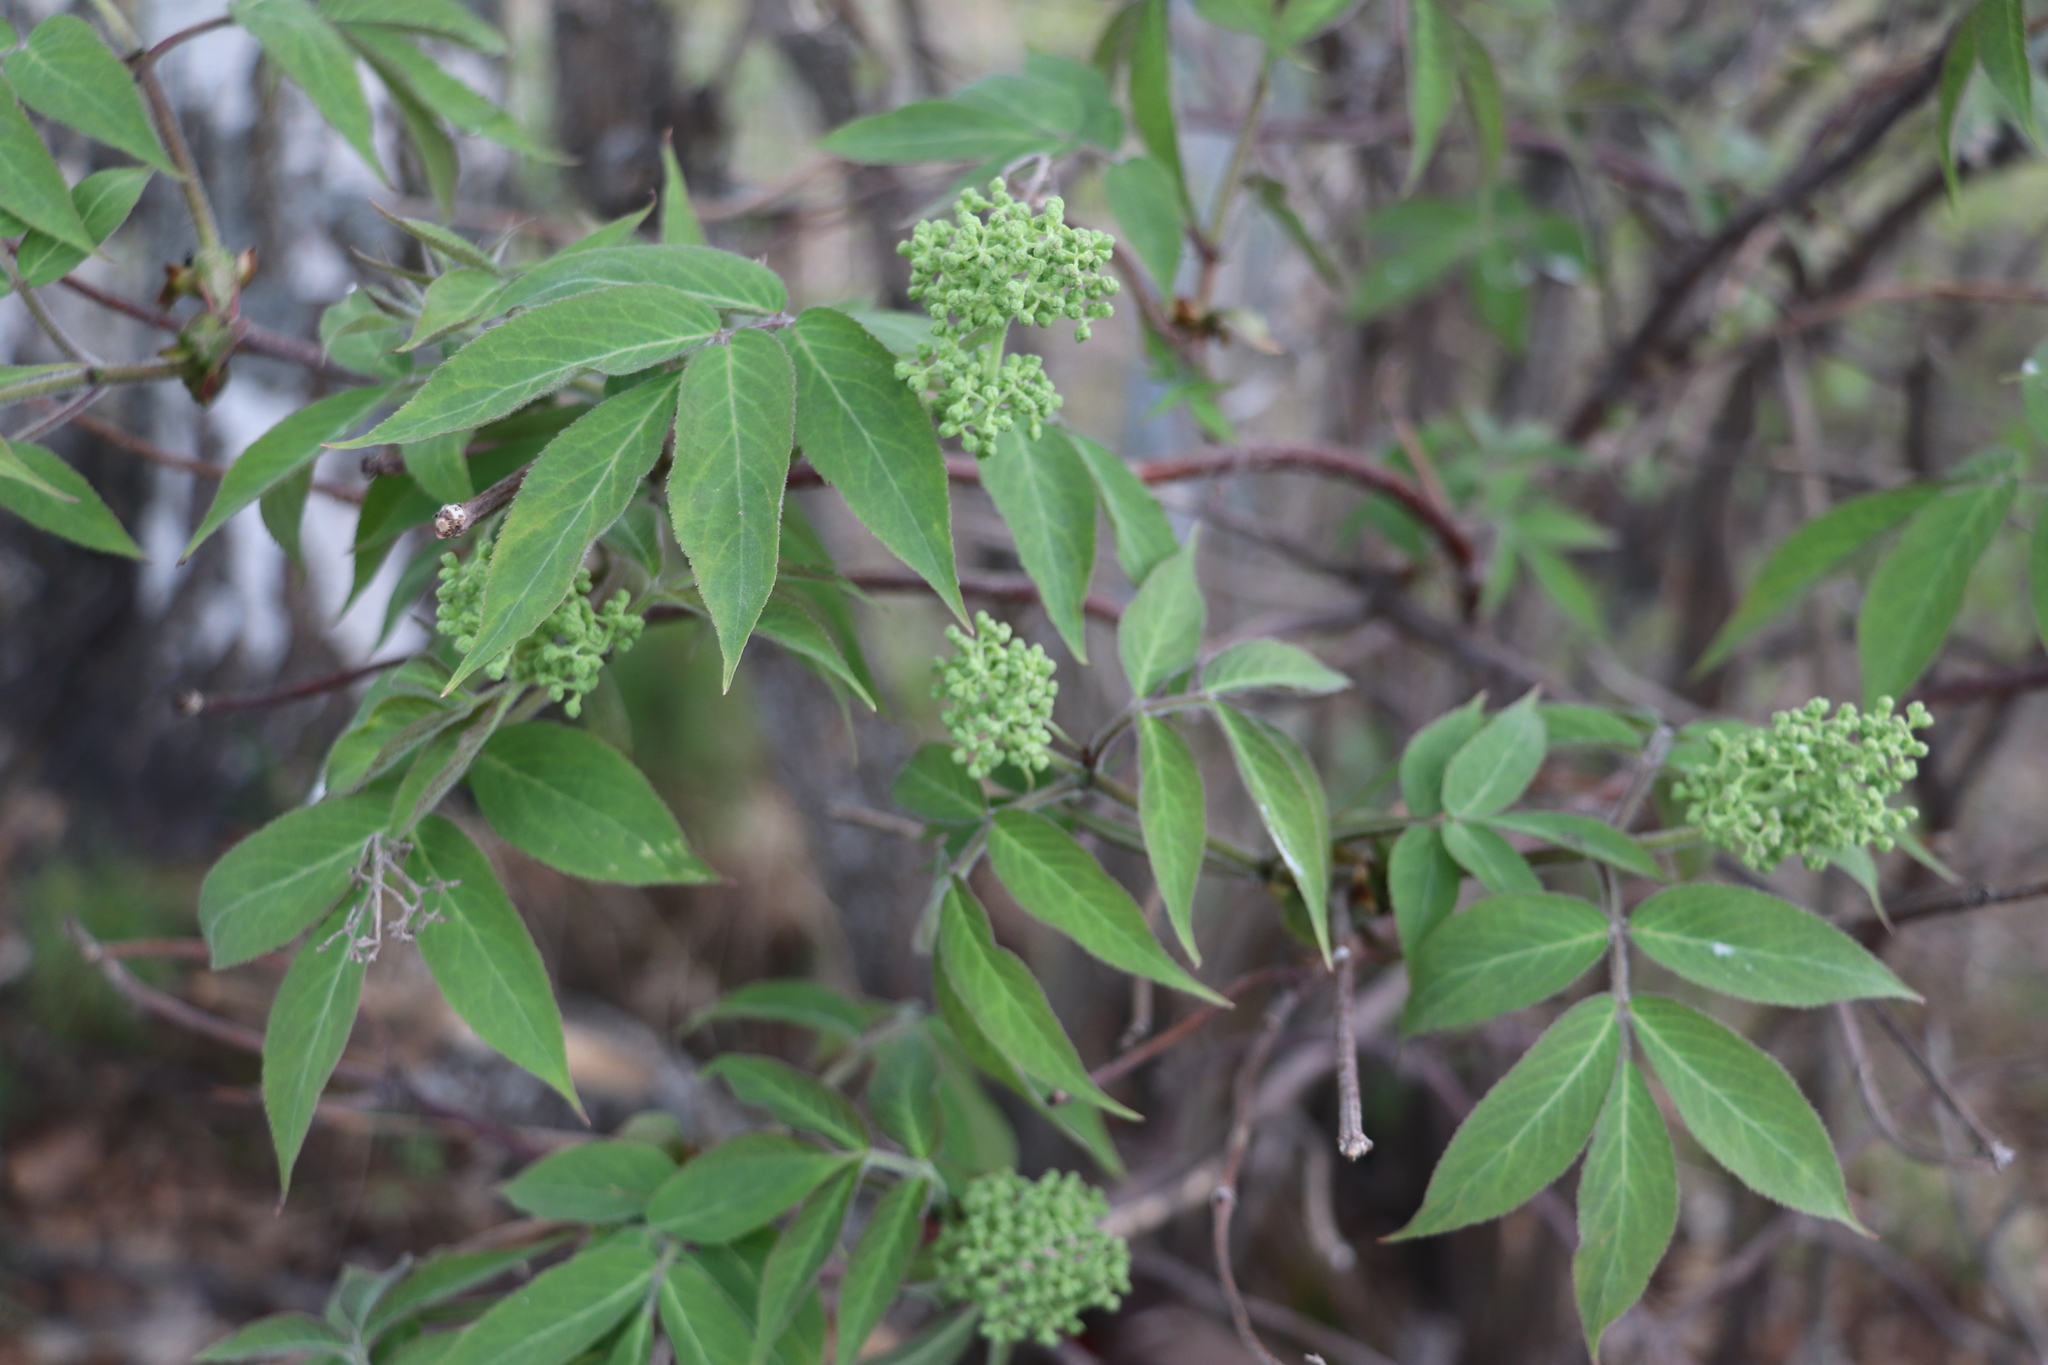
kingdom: Plantae
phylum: Tracheophyta
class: Magnoliopsida
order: Dipsacales
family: Viburnaceae
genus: Sambucus
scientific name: Sambucus sibirica
